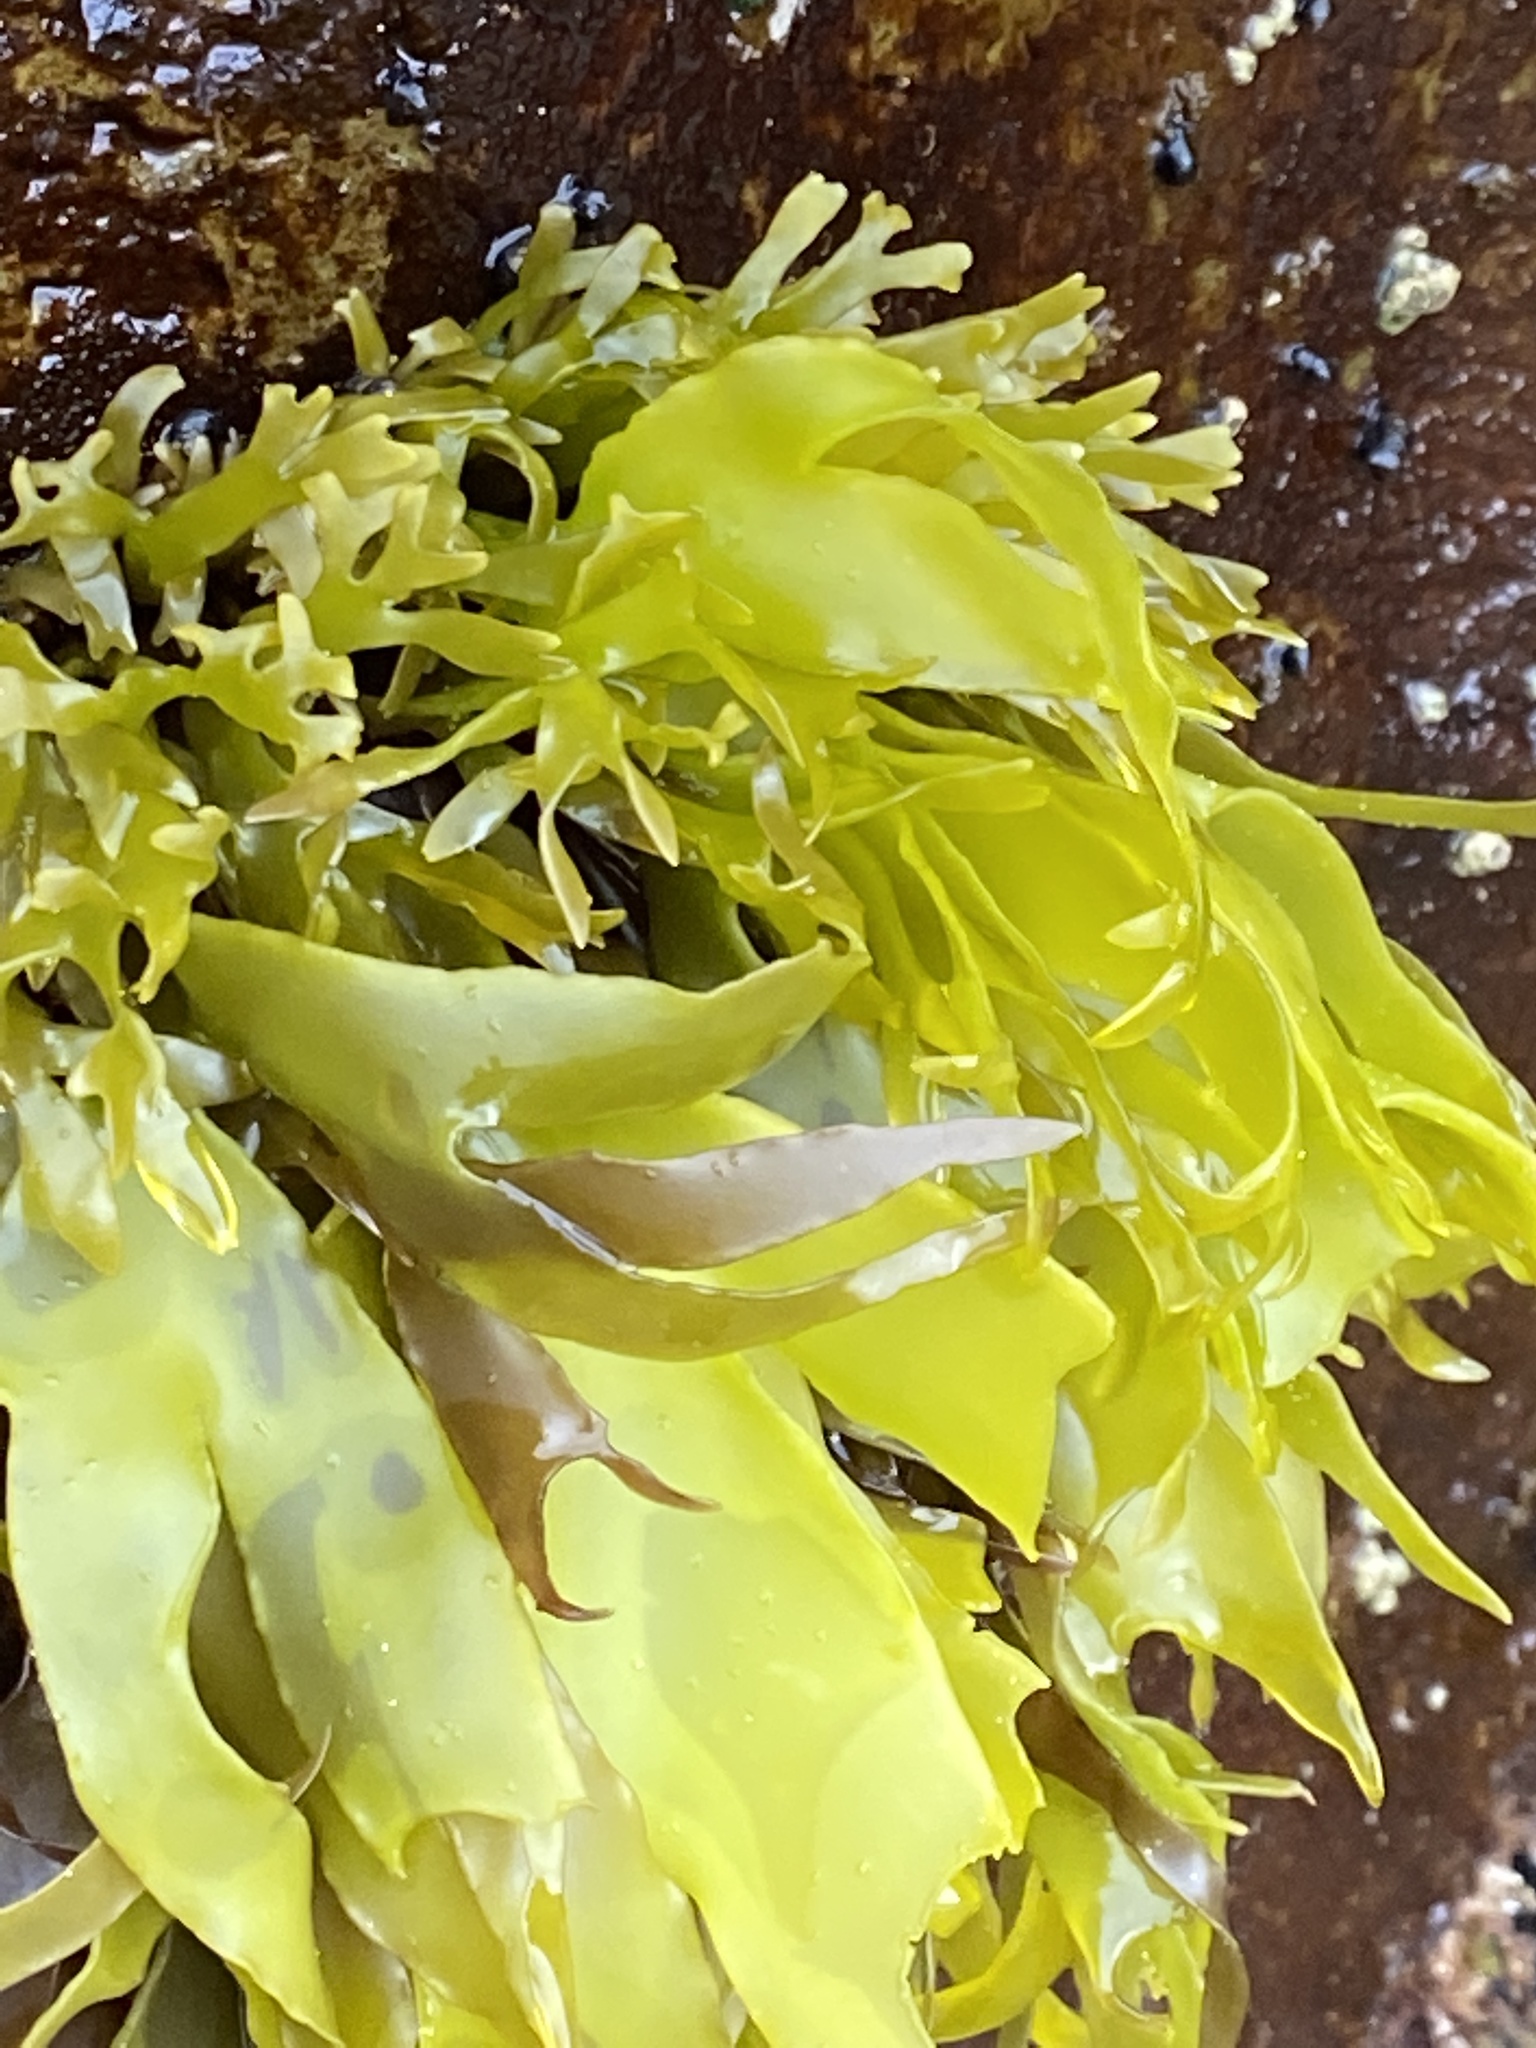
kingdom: Plantae
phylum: Rhodophyta
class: Florideophyceae
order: Halymeniales
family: Halymeniaceae
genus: Pachymenia
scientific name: Pachymenia dichotoma
